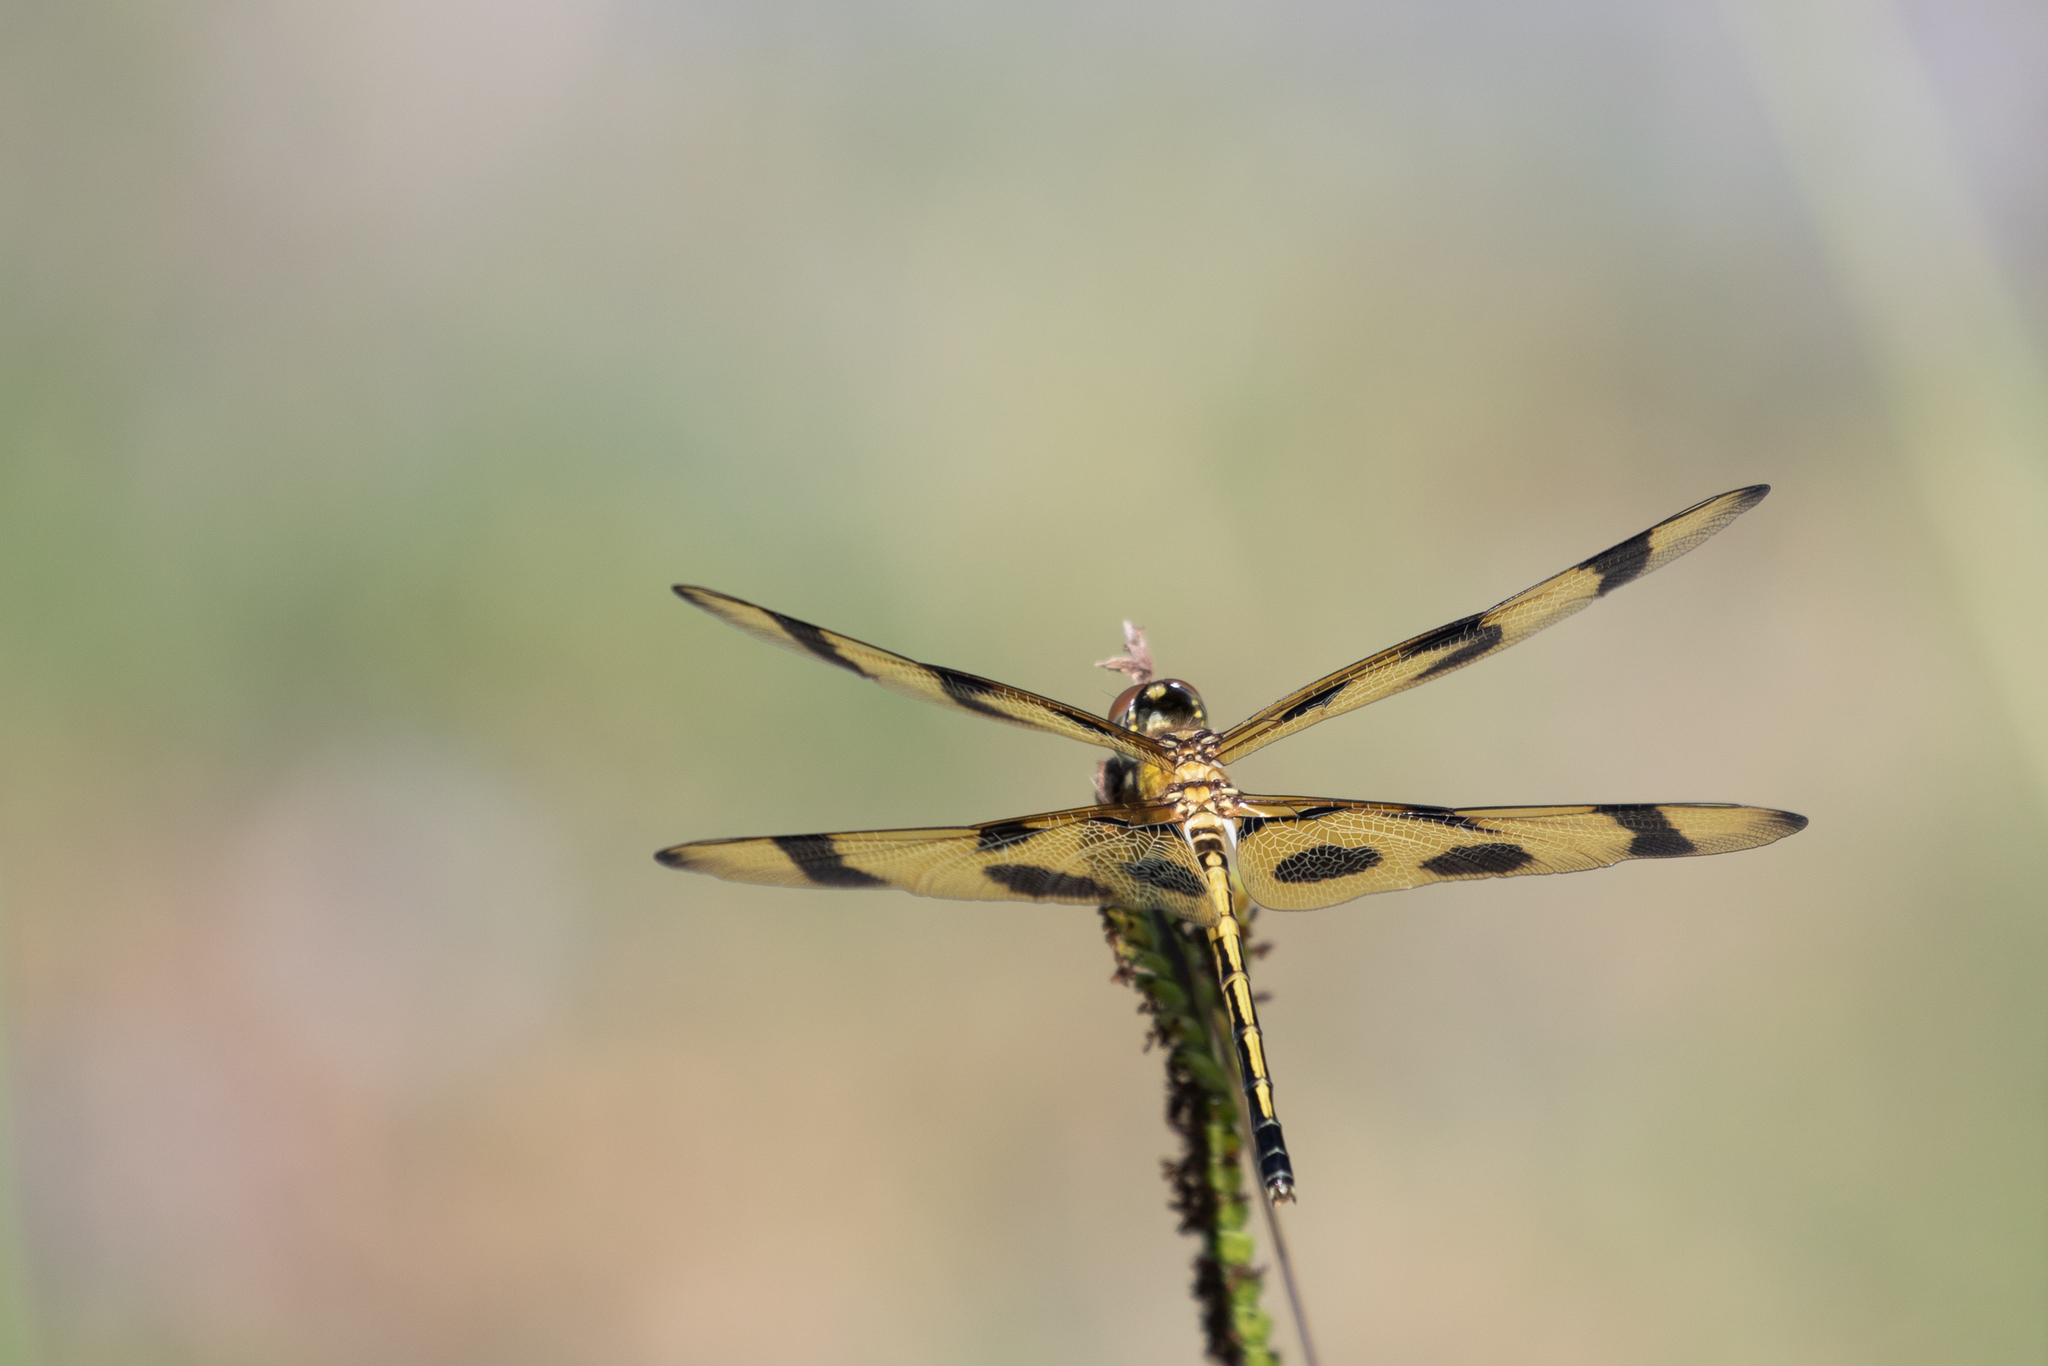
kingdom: Animalia
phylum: Arthropoda
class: Insecta
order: Odonata
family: Libellulidae
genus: Celithemis
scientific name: Celithemis eponina
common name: Halloween pennant
